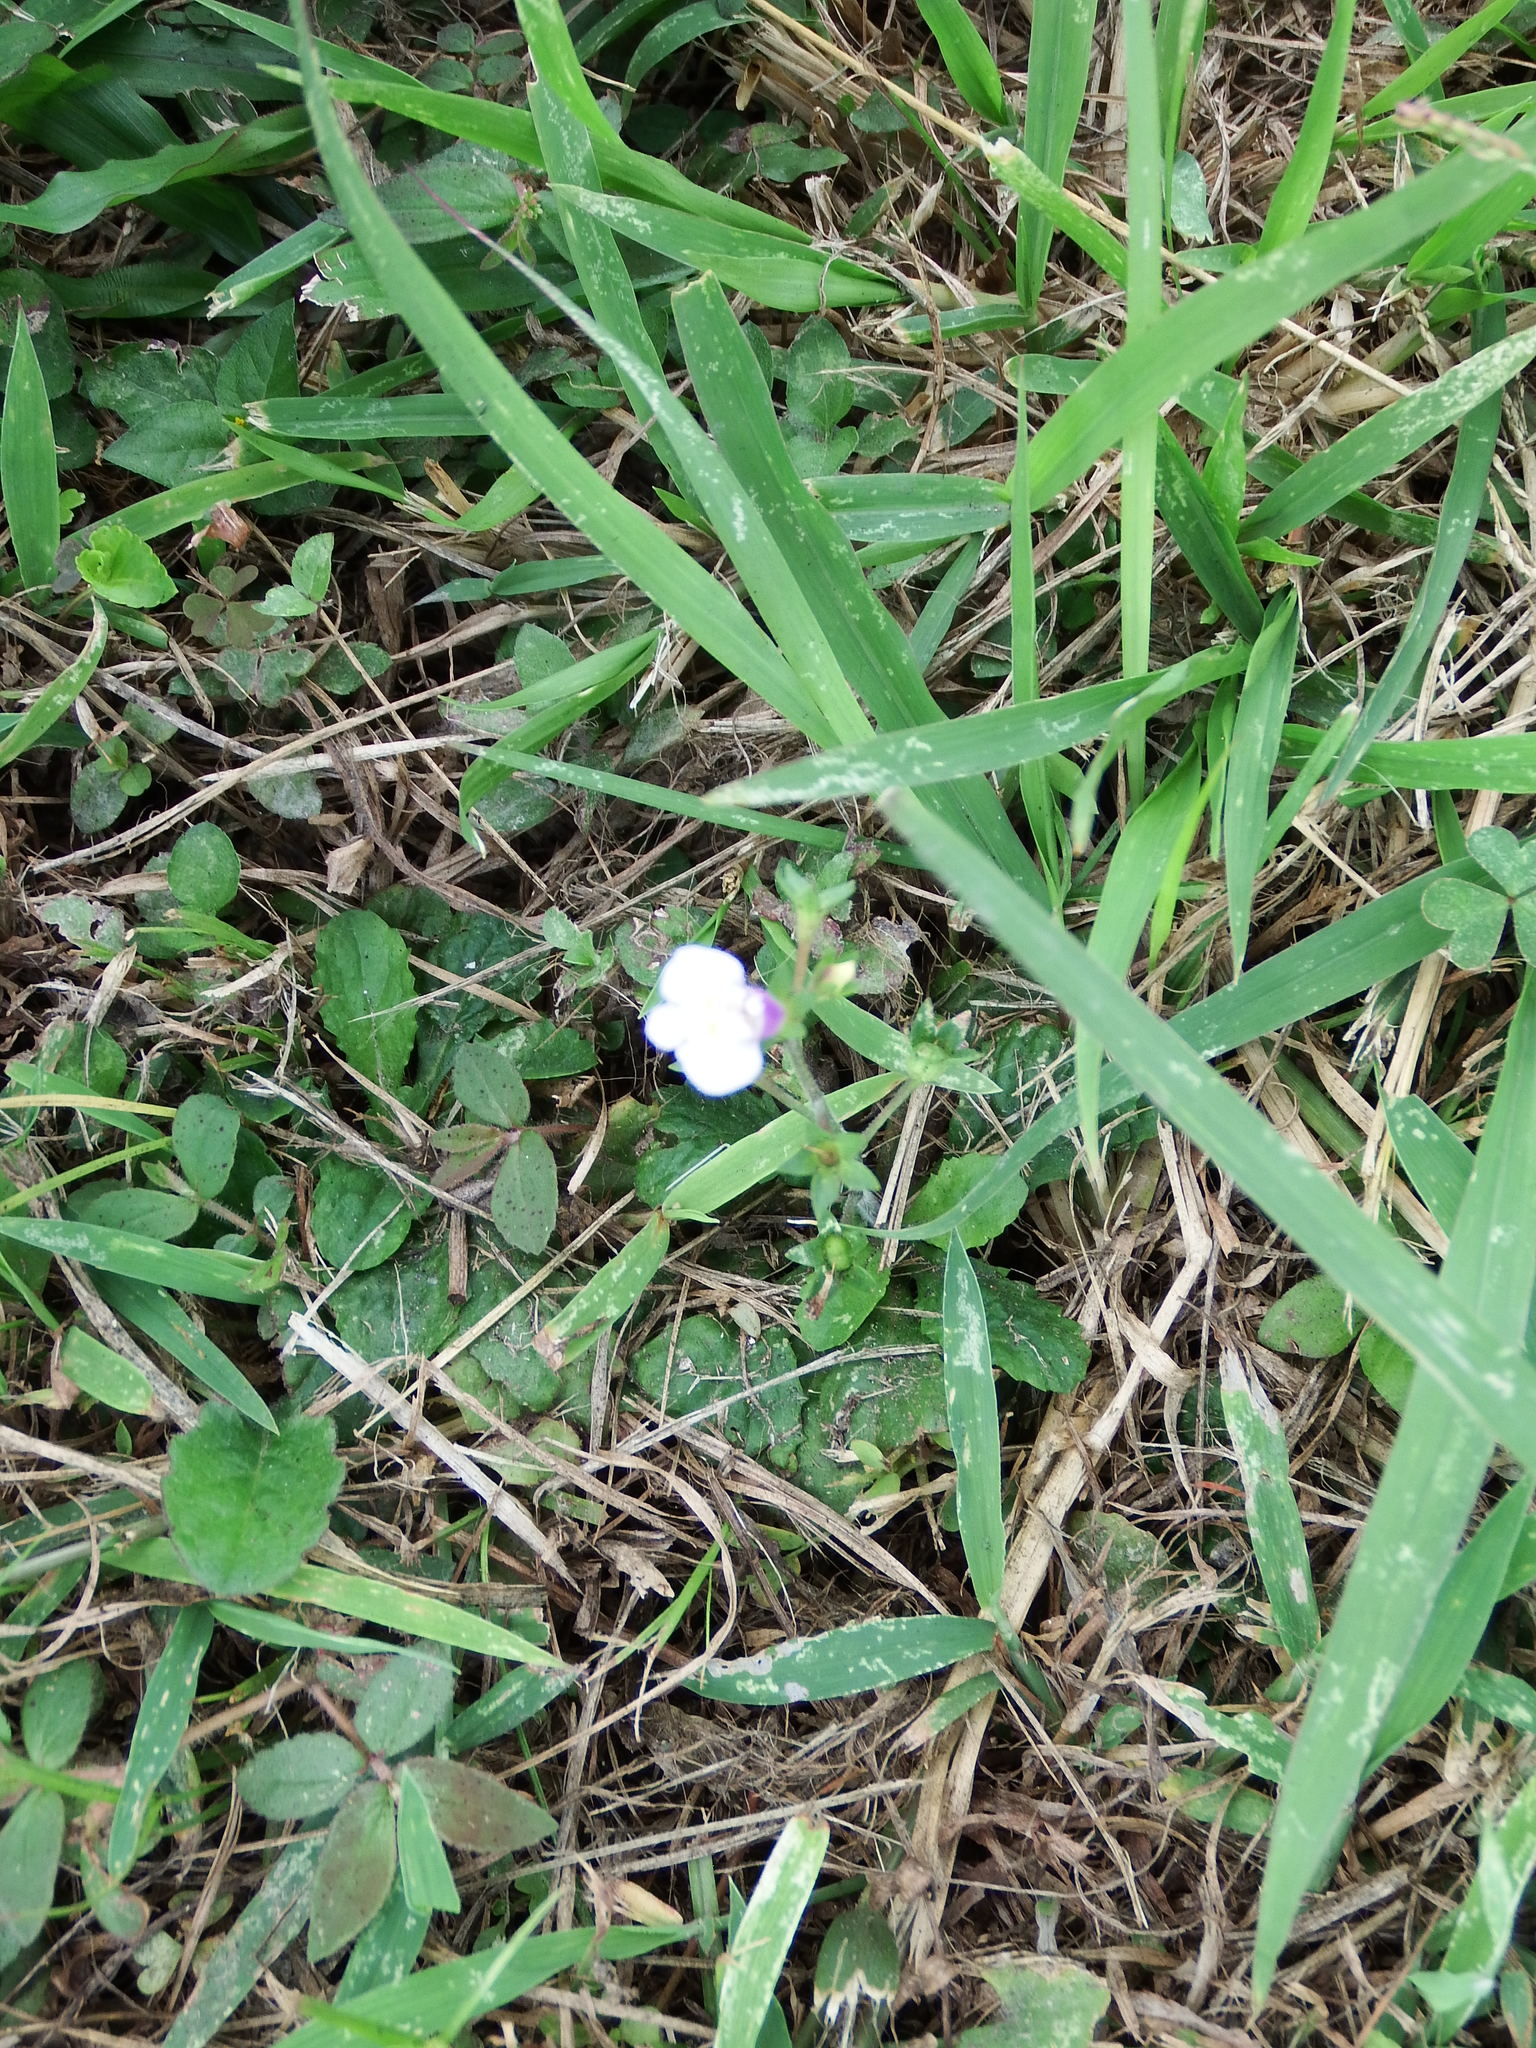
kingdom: Plantae
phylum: Tracheophyta
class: Magnoliopsida
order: Lamiales
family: Mazaceae
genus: Mazus
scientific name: Mazus pumilus
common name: Japanese mazus
